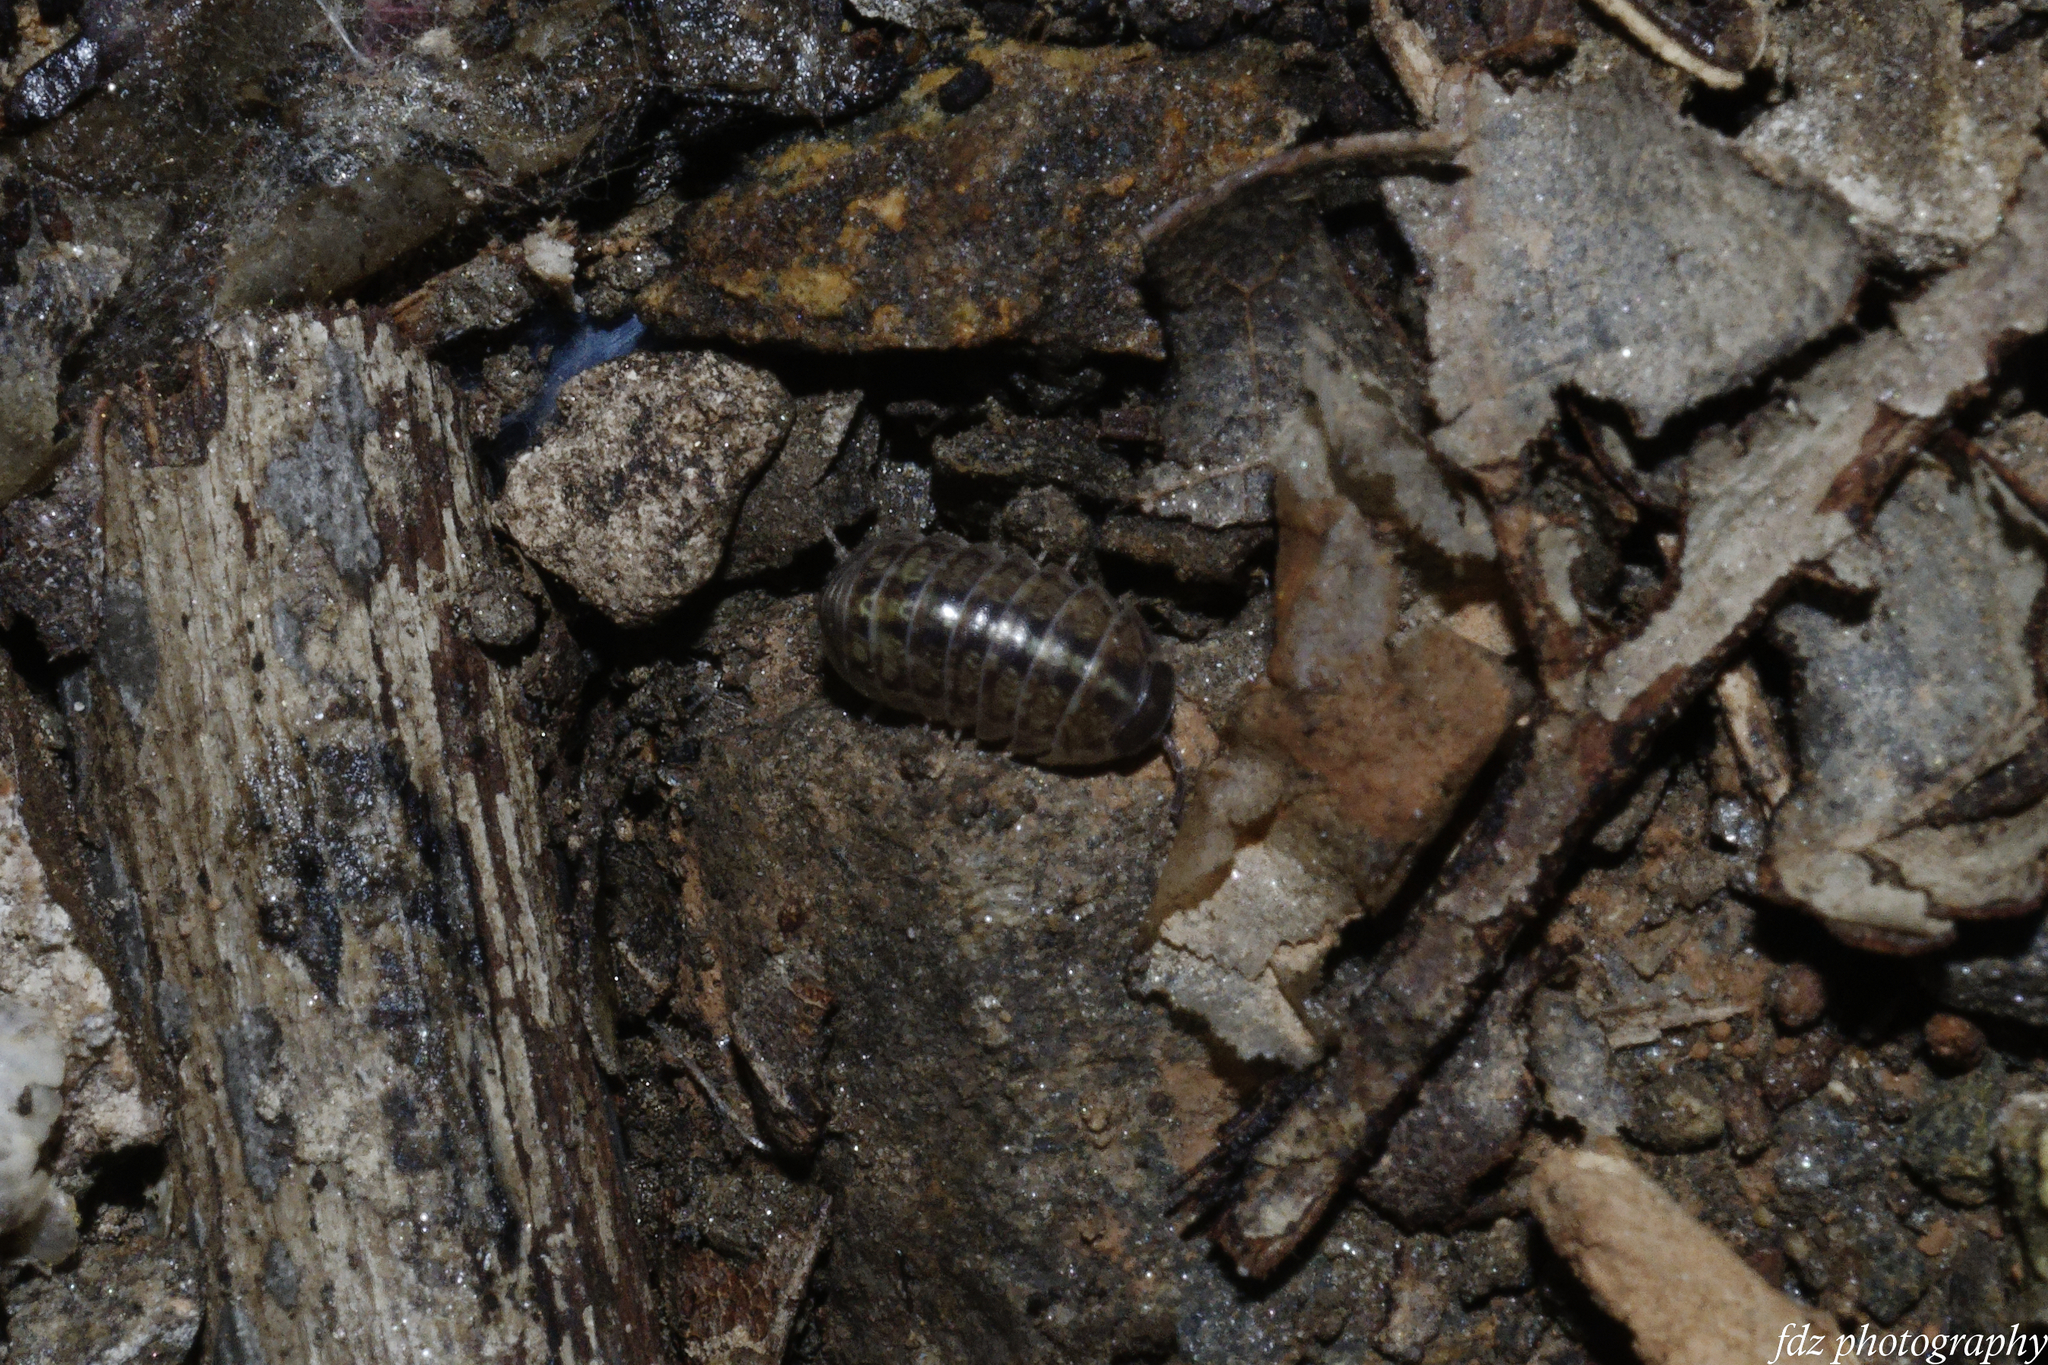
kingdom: Animalia
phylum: Arthropoda
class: Malacostraca
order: Isopoda
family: Armadillidiidae
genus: Armadillidium
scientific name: Armadillidium vulgare
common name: Common pill woodlouse
